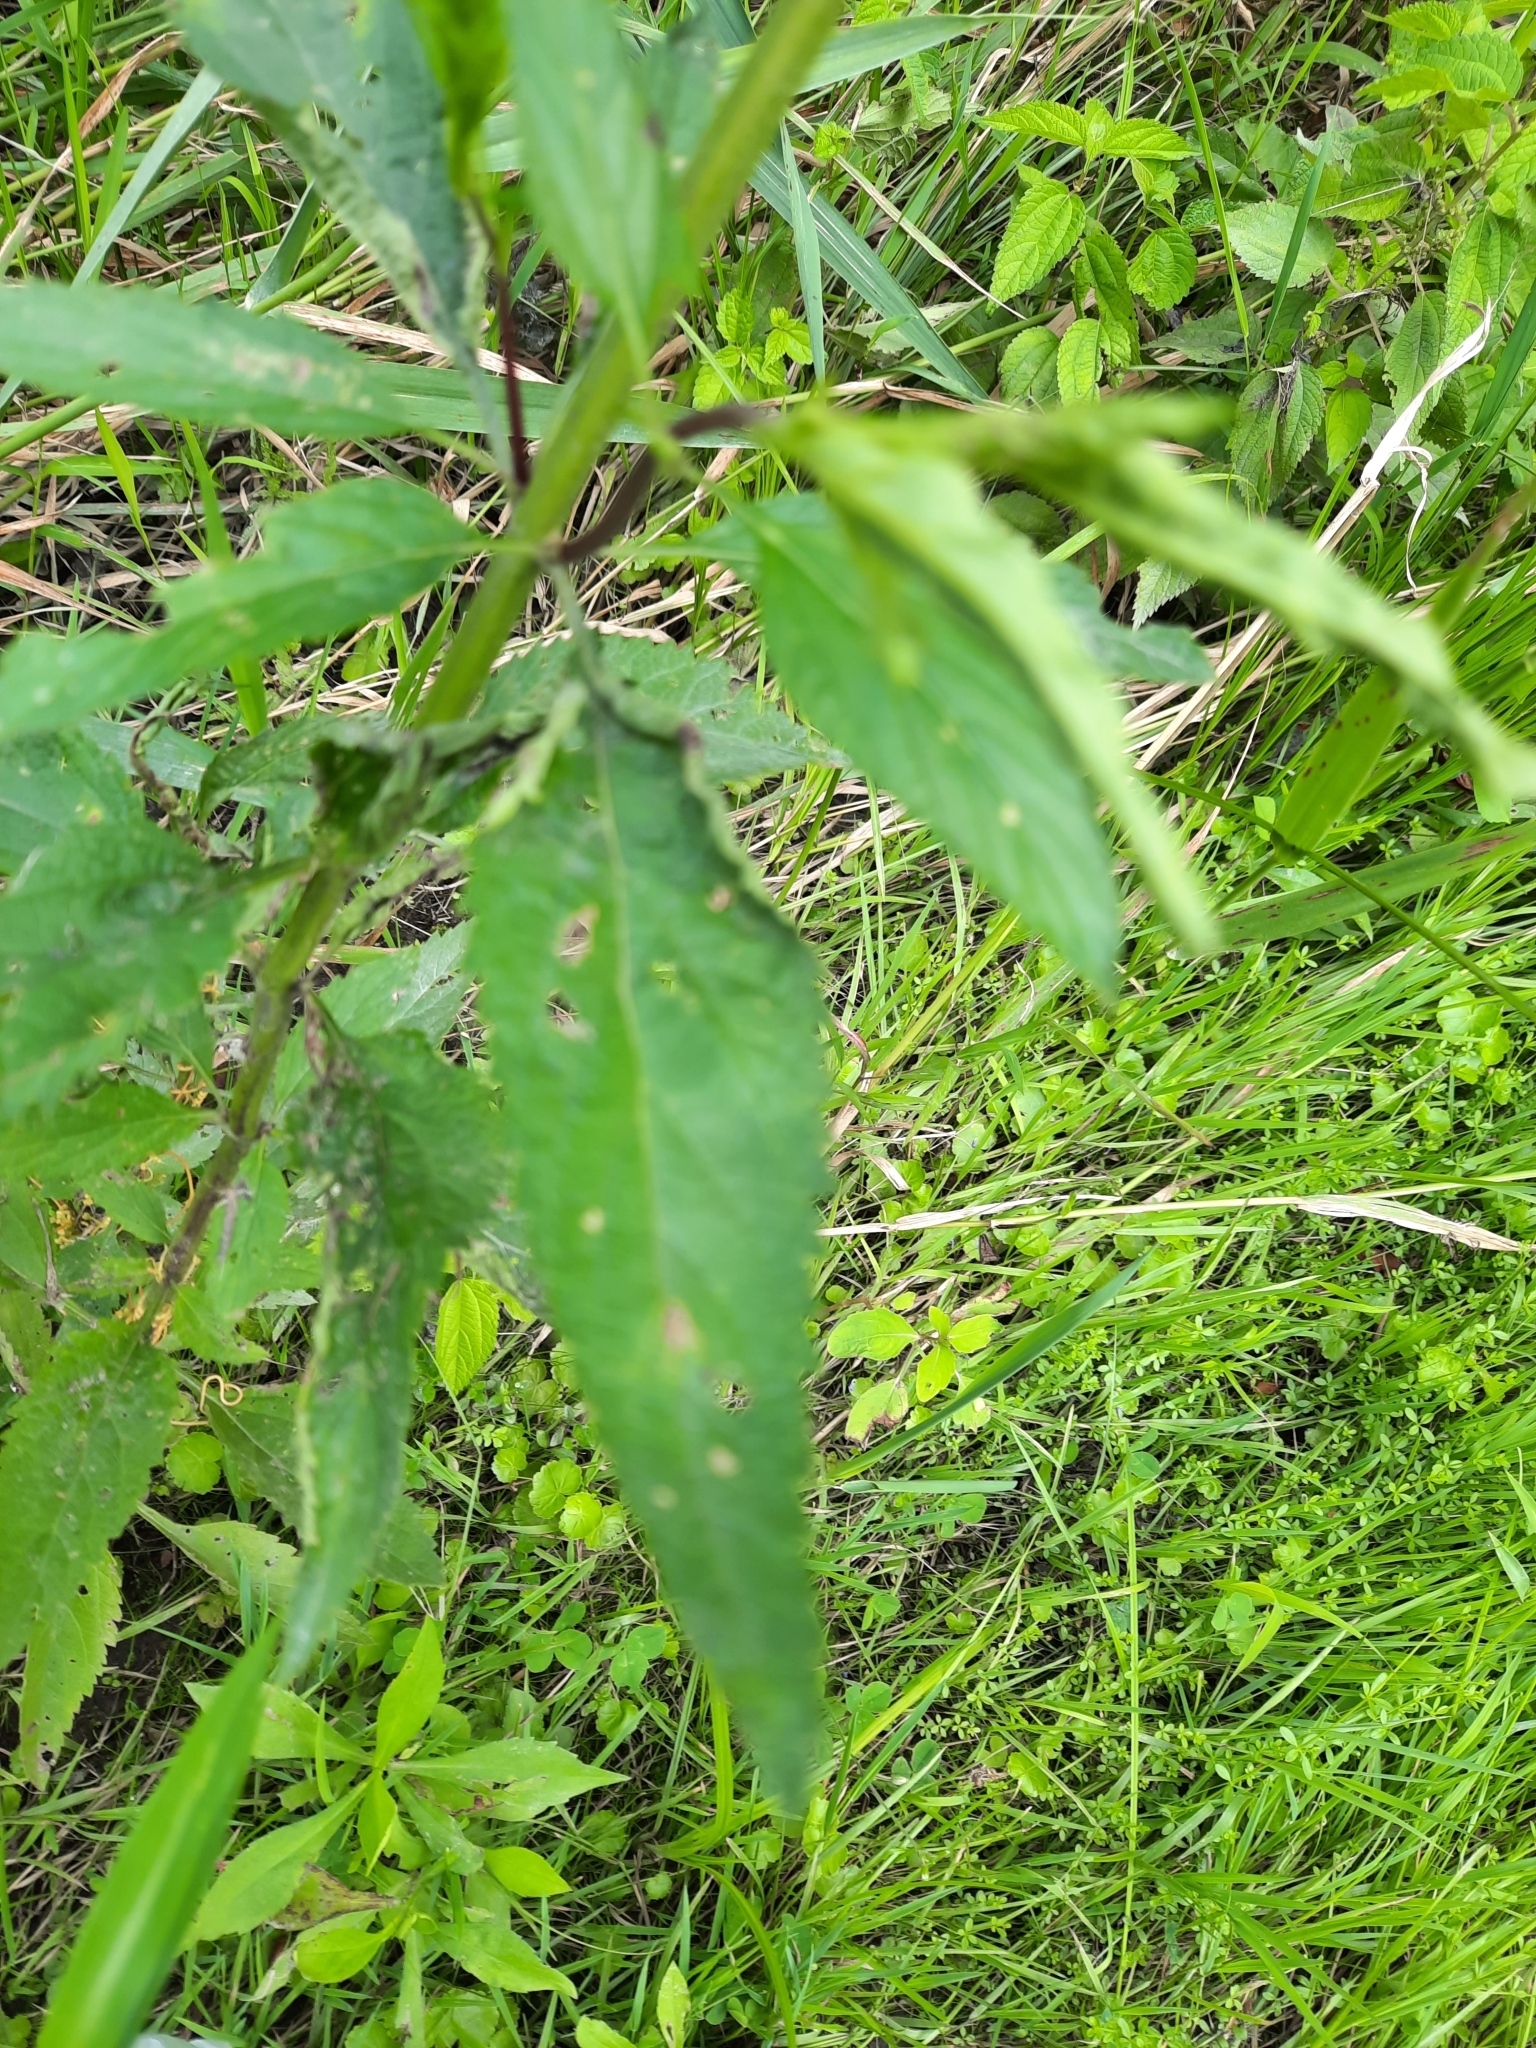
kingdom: Plantae
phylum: Tracheophyta
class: Magnoliopsida
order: Lamiales
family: Verbenaceae
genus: Verbena
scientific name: Verbena hastata
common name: American blue vervain
